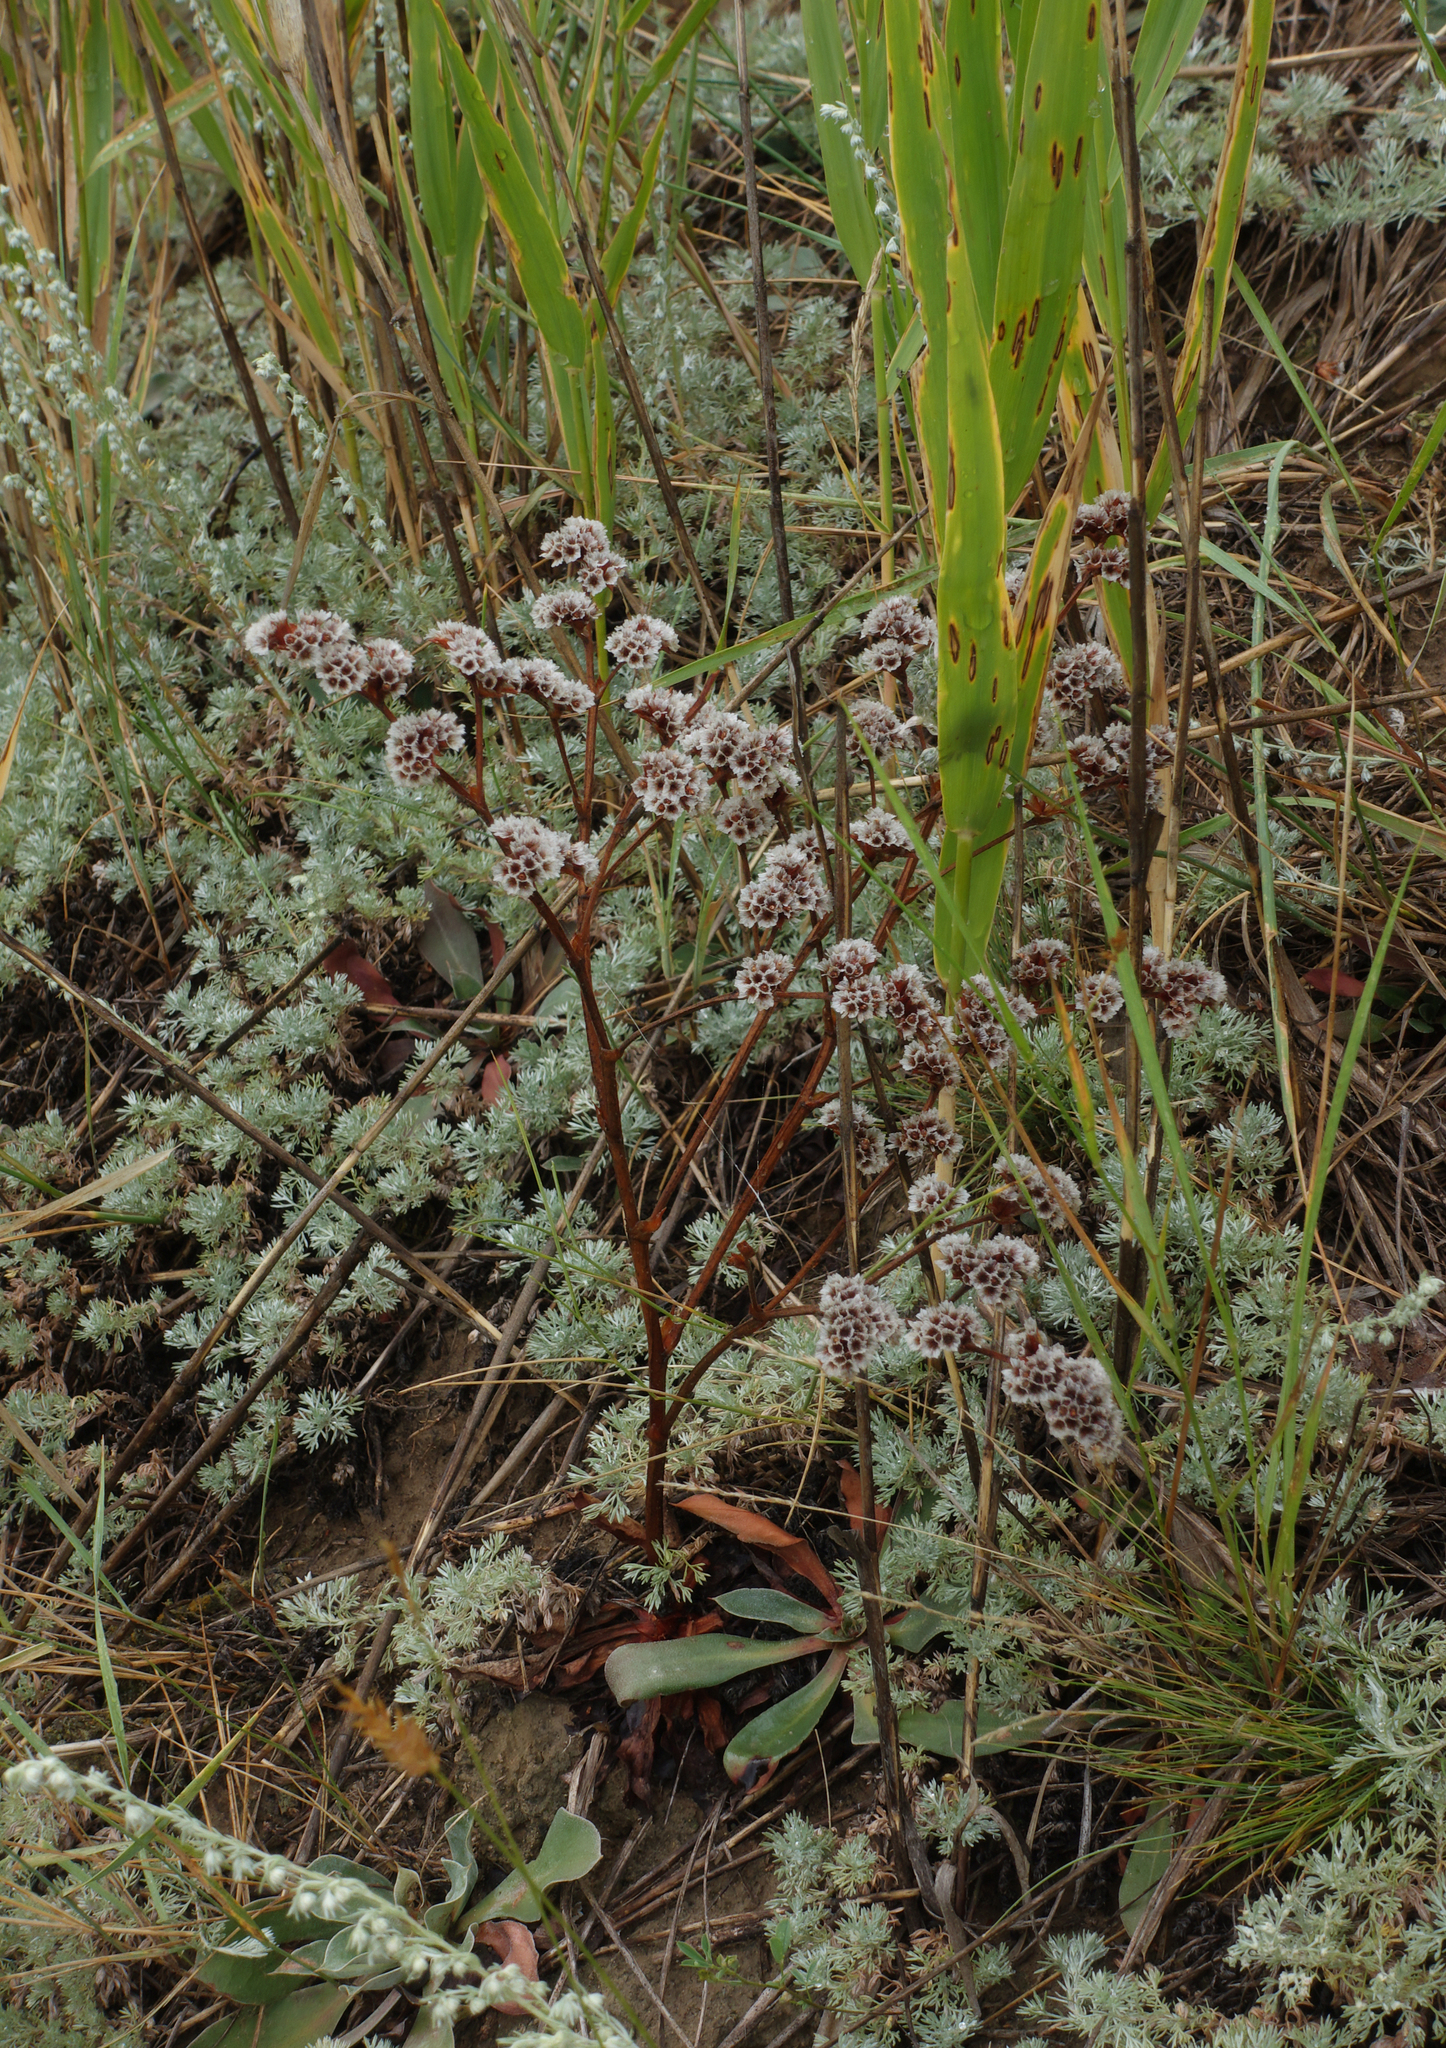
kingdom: Plantae
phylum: Tracheophyta
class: Magnoliopsida
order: Caryophyllales
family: Plumbaginaceae
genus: Goniolimon
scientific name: Goniolimon speciosum
